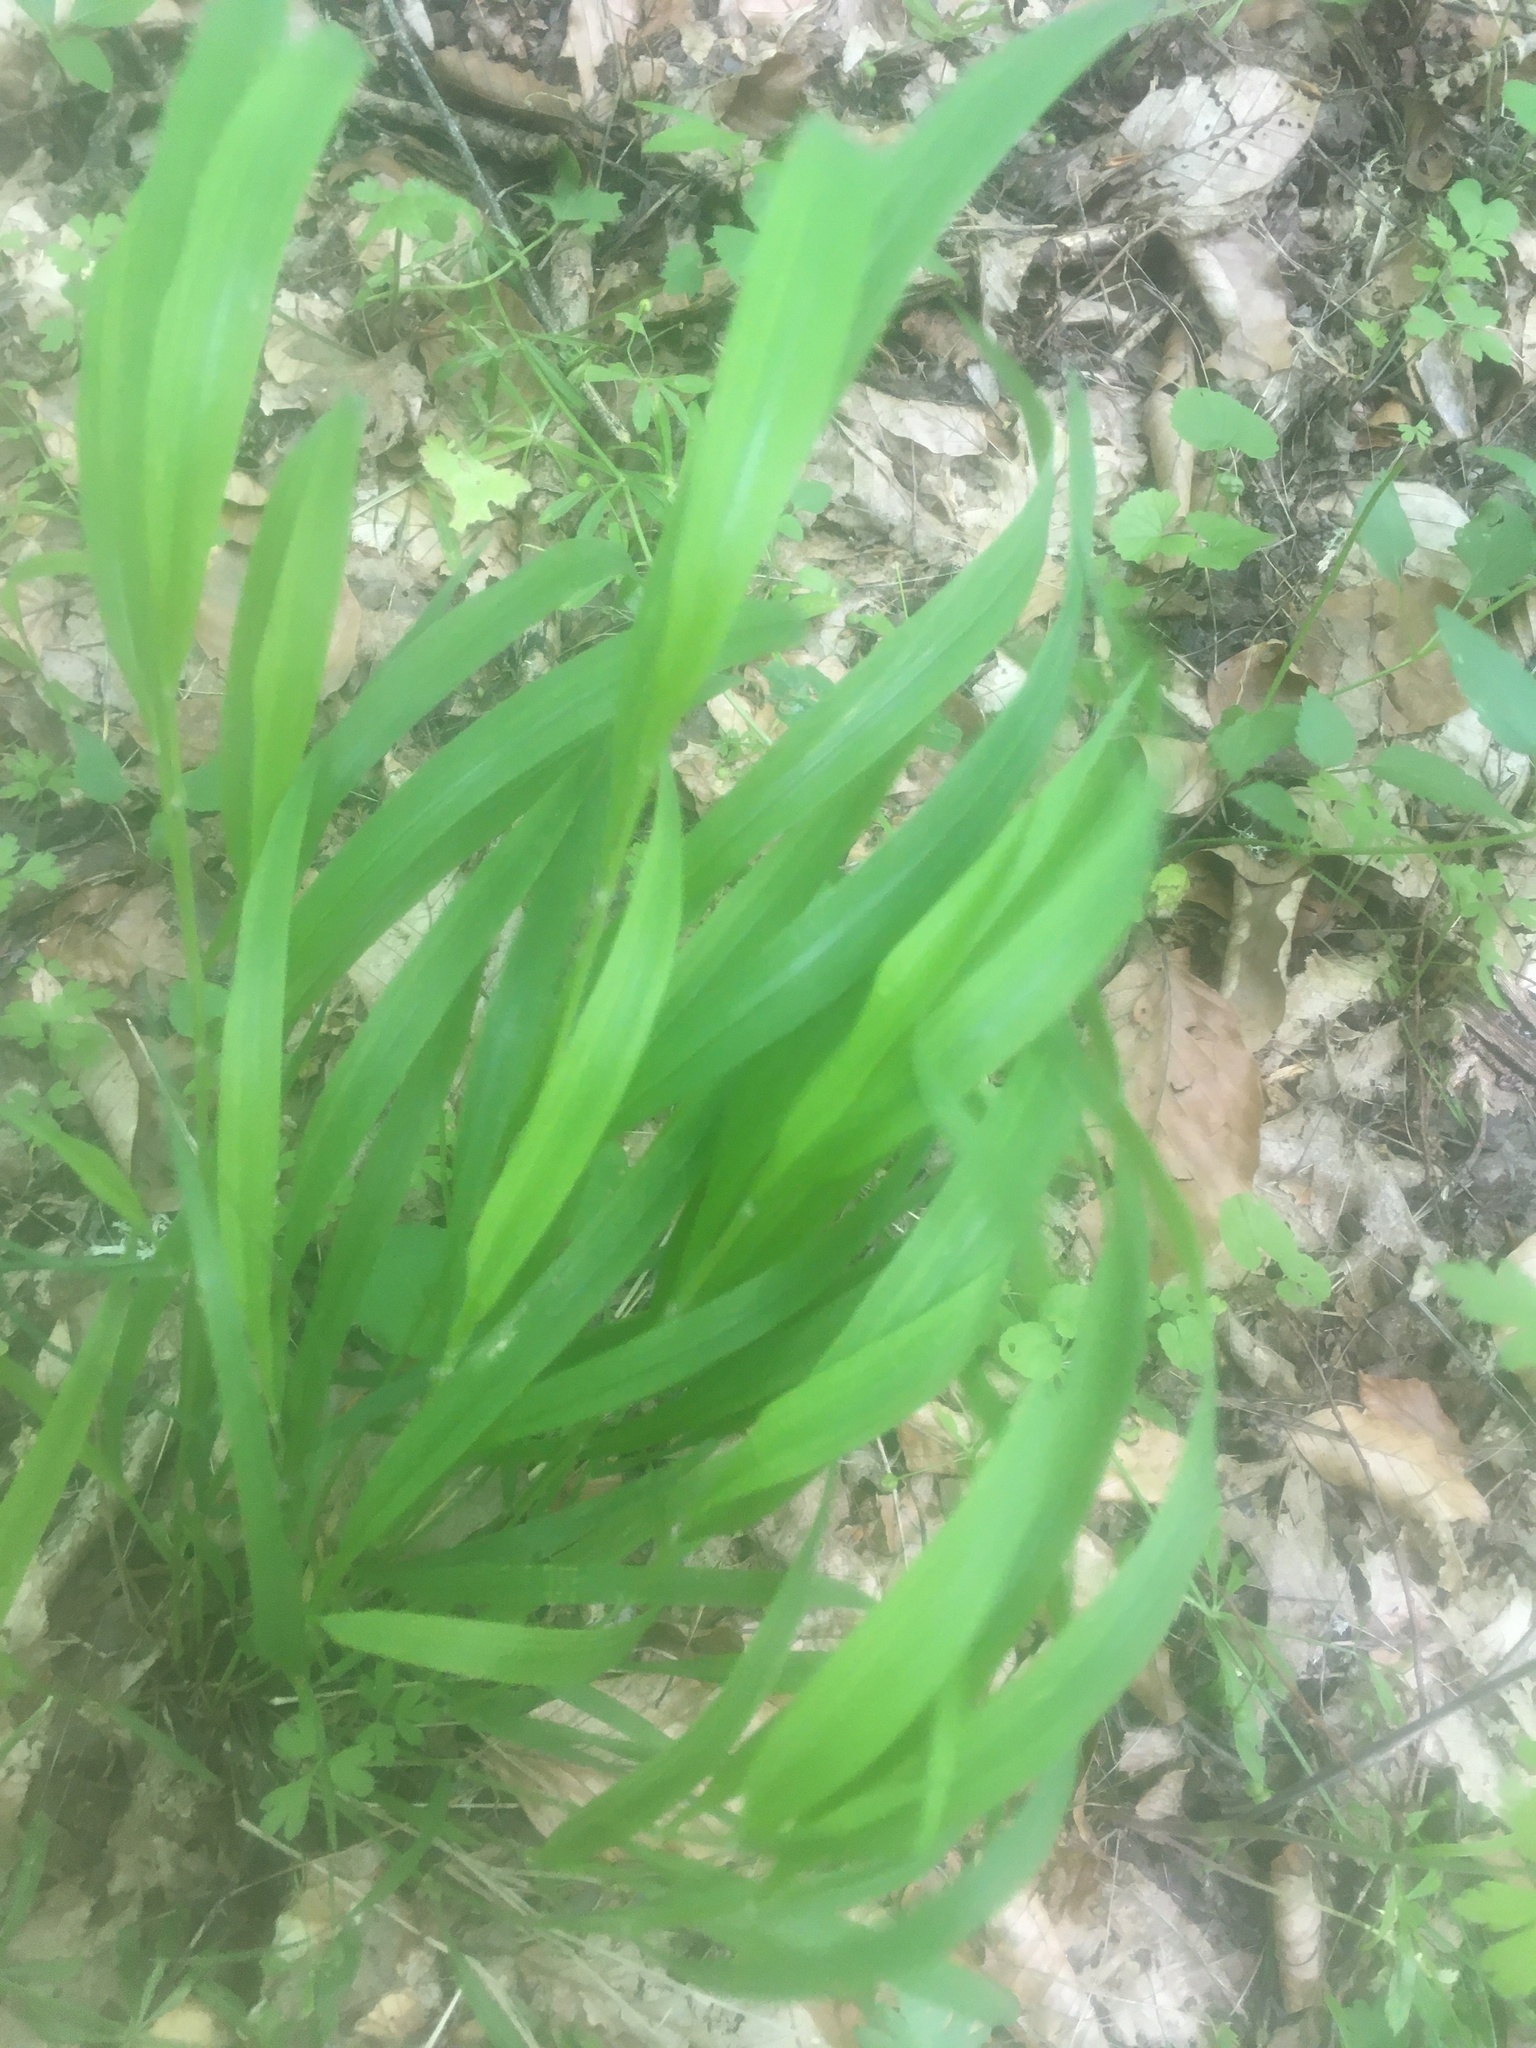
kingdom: Plantae
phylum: Tracheophyta
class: Liliopsida
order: Poales
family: Poaceae
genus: Brachypodium
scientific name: Brachypodium sylvaticum
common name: False-brome
